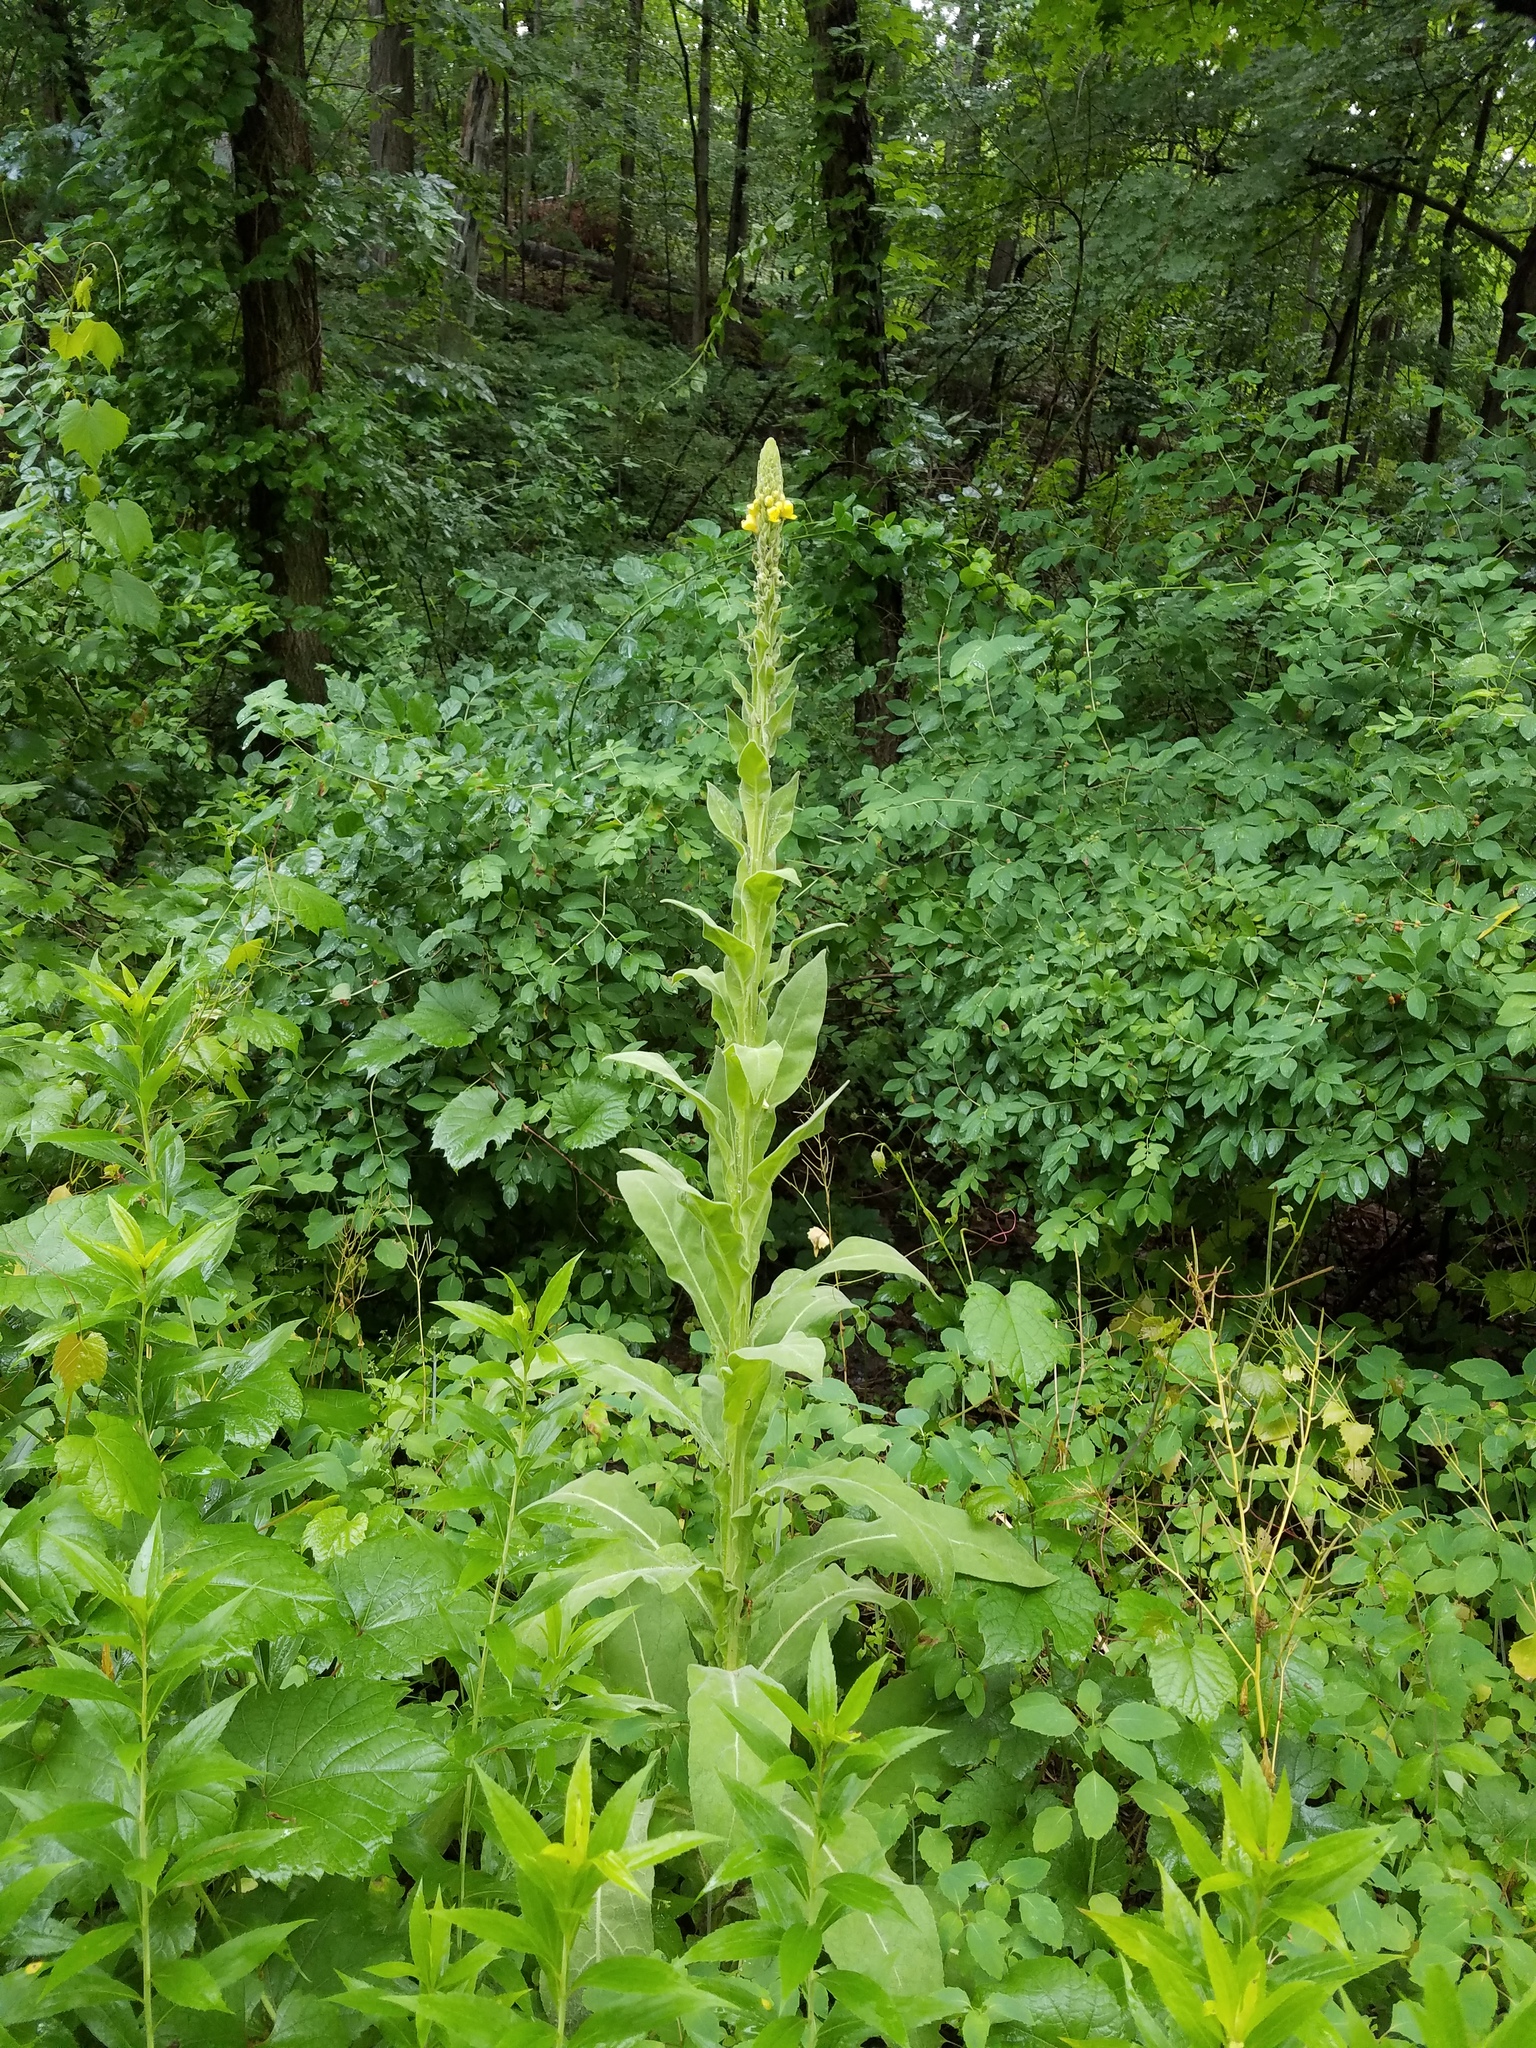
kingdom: Plantae
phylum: Tracheophyta
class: Magnoliopsida
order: Lamiales
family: Scrophulariaceae
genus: Verbascum
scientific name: Verbascum thapsus
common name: Common mullein
